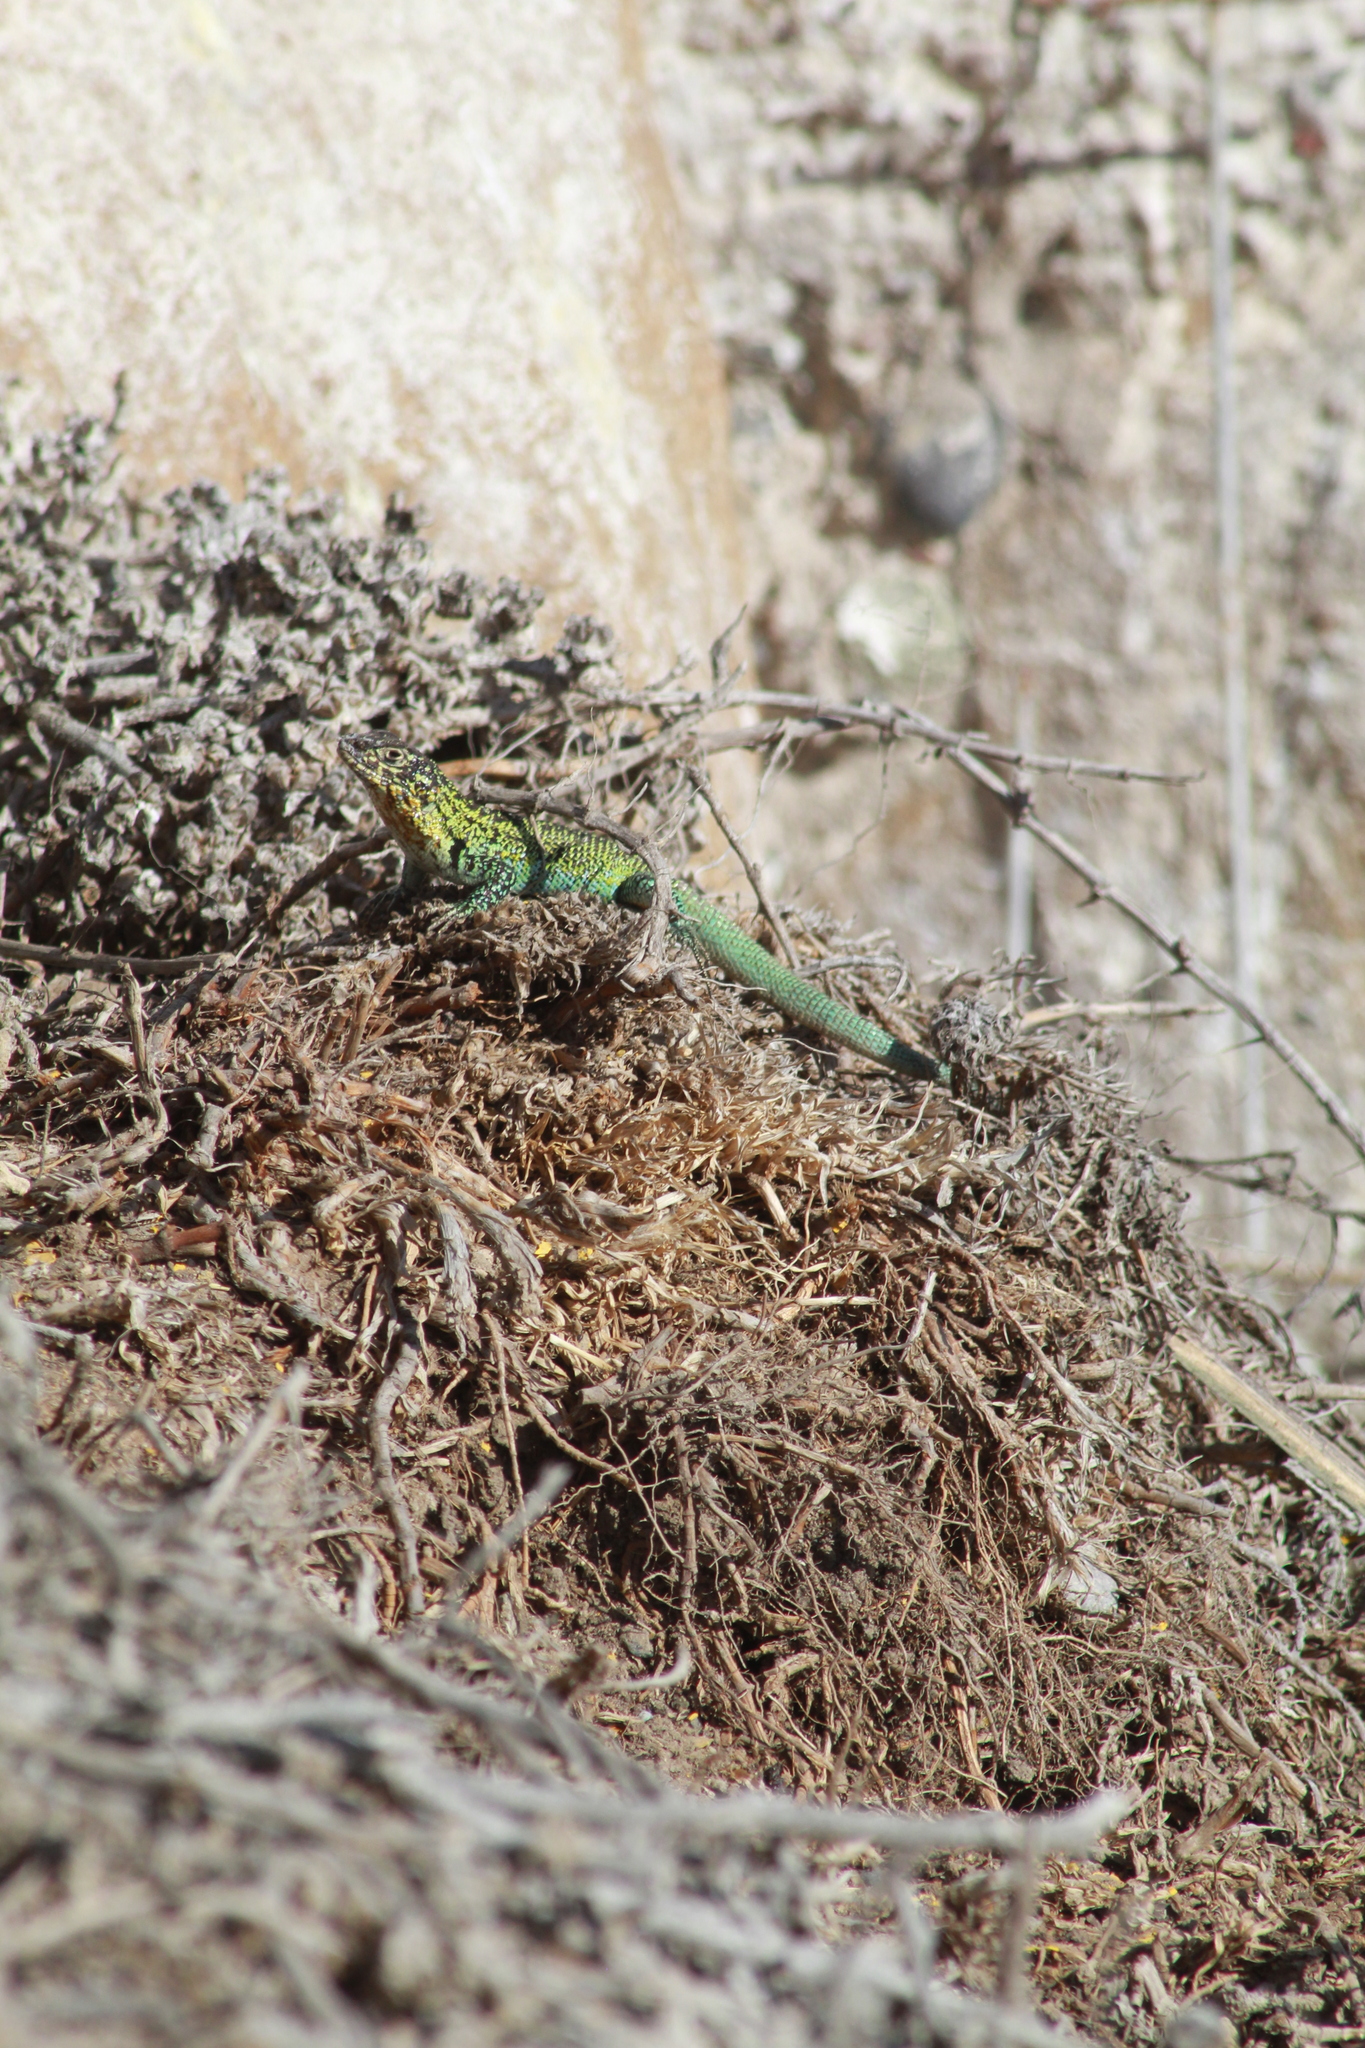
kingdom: Animalia
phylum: Chordata
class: Squamata
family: Liolaemidae
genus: Liolaemus
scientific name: Liolaemus zapallarensis
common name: Zapallaren tree iguana
